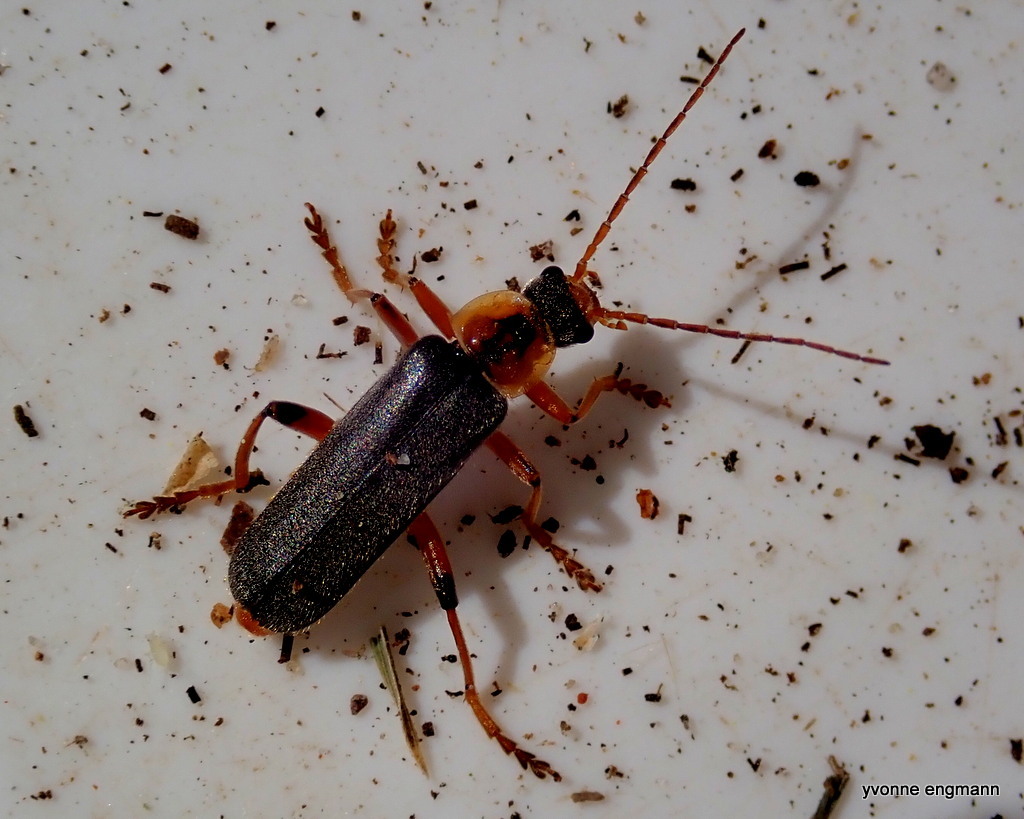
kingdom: Animalia
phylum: Arthropoda
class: Insecta
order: Coleoptera
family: Cantharidae
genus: Cantharis
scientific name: Cantharis nigricans
